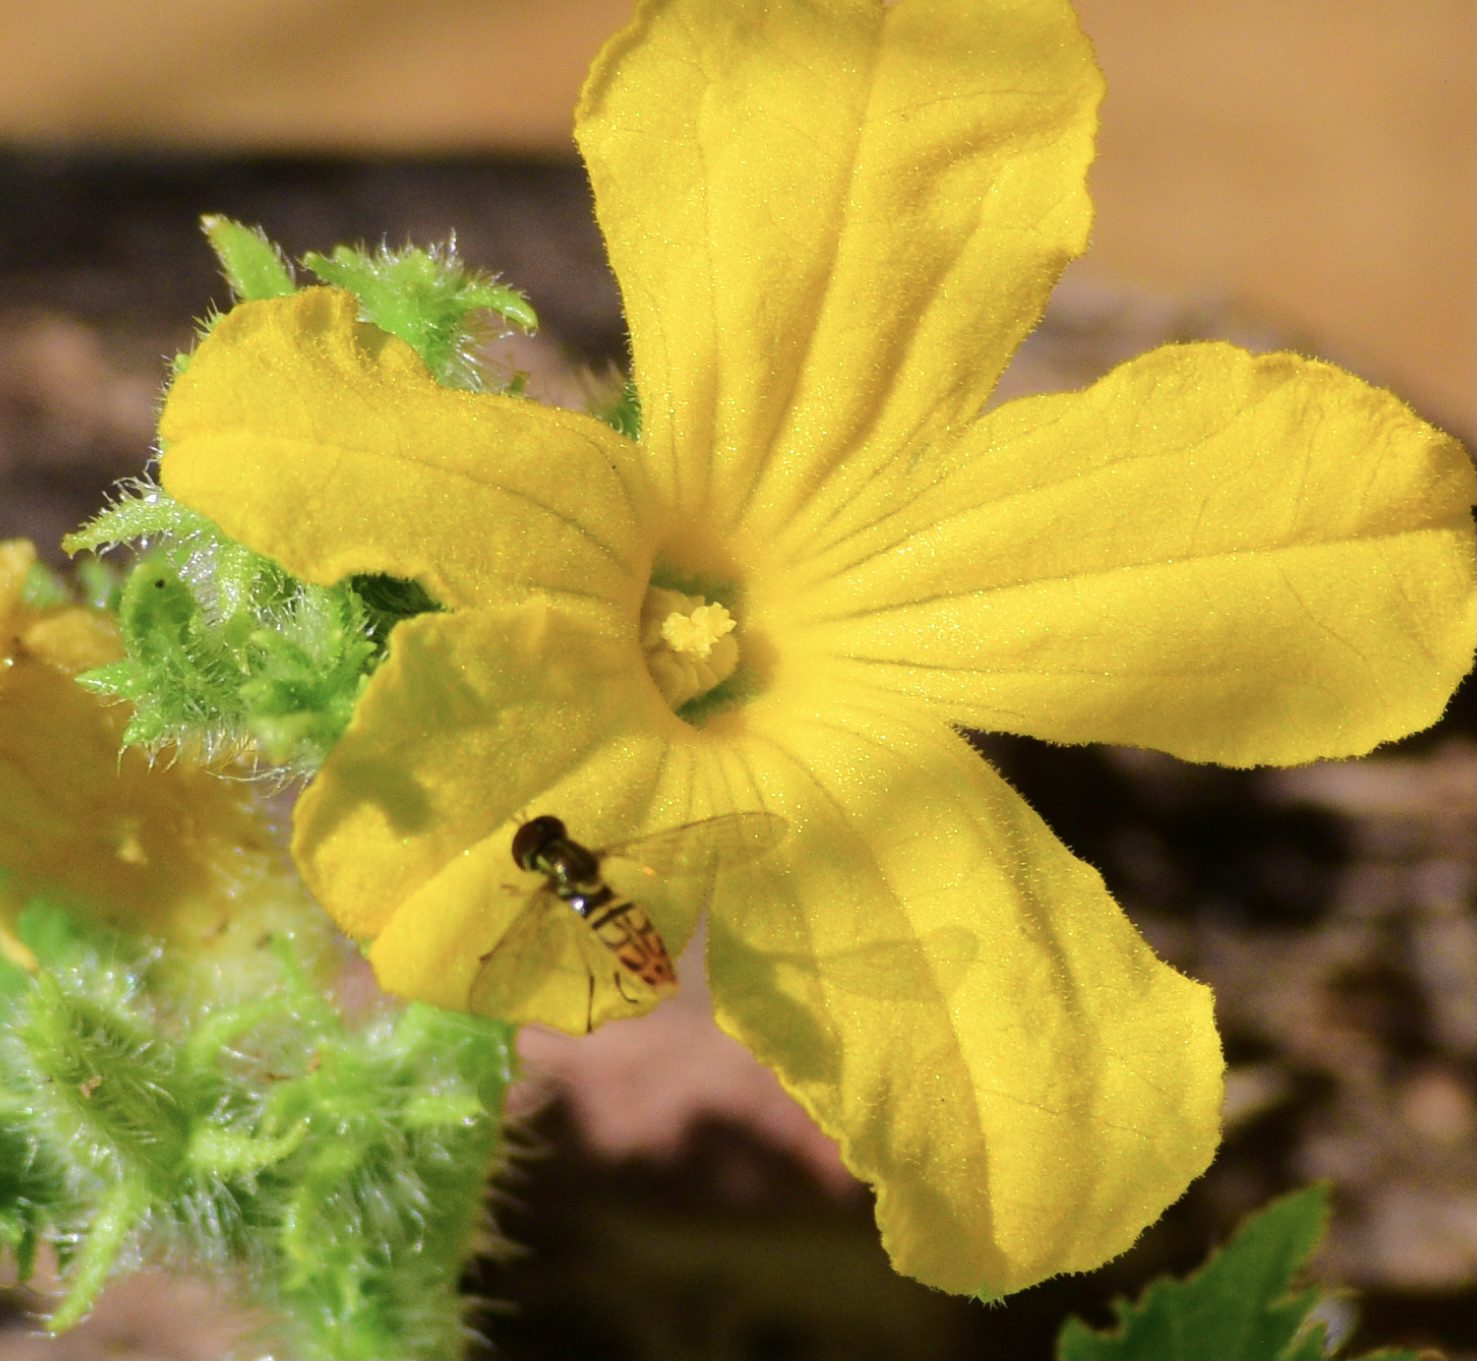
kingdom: Animalia
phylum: Arthropoda
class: Insecta
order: Diptera
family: Syrphidae
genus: Toxomerus
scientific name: Toxomerus marginatus
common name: Syrphid fly
